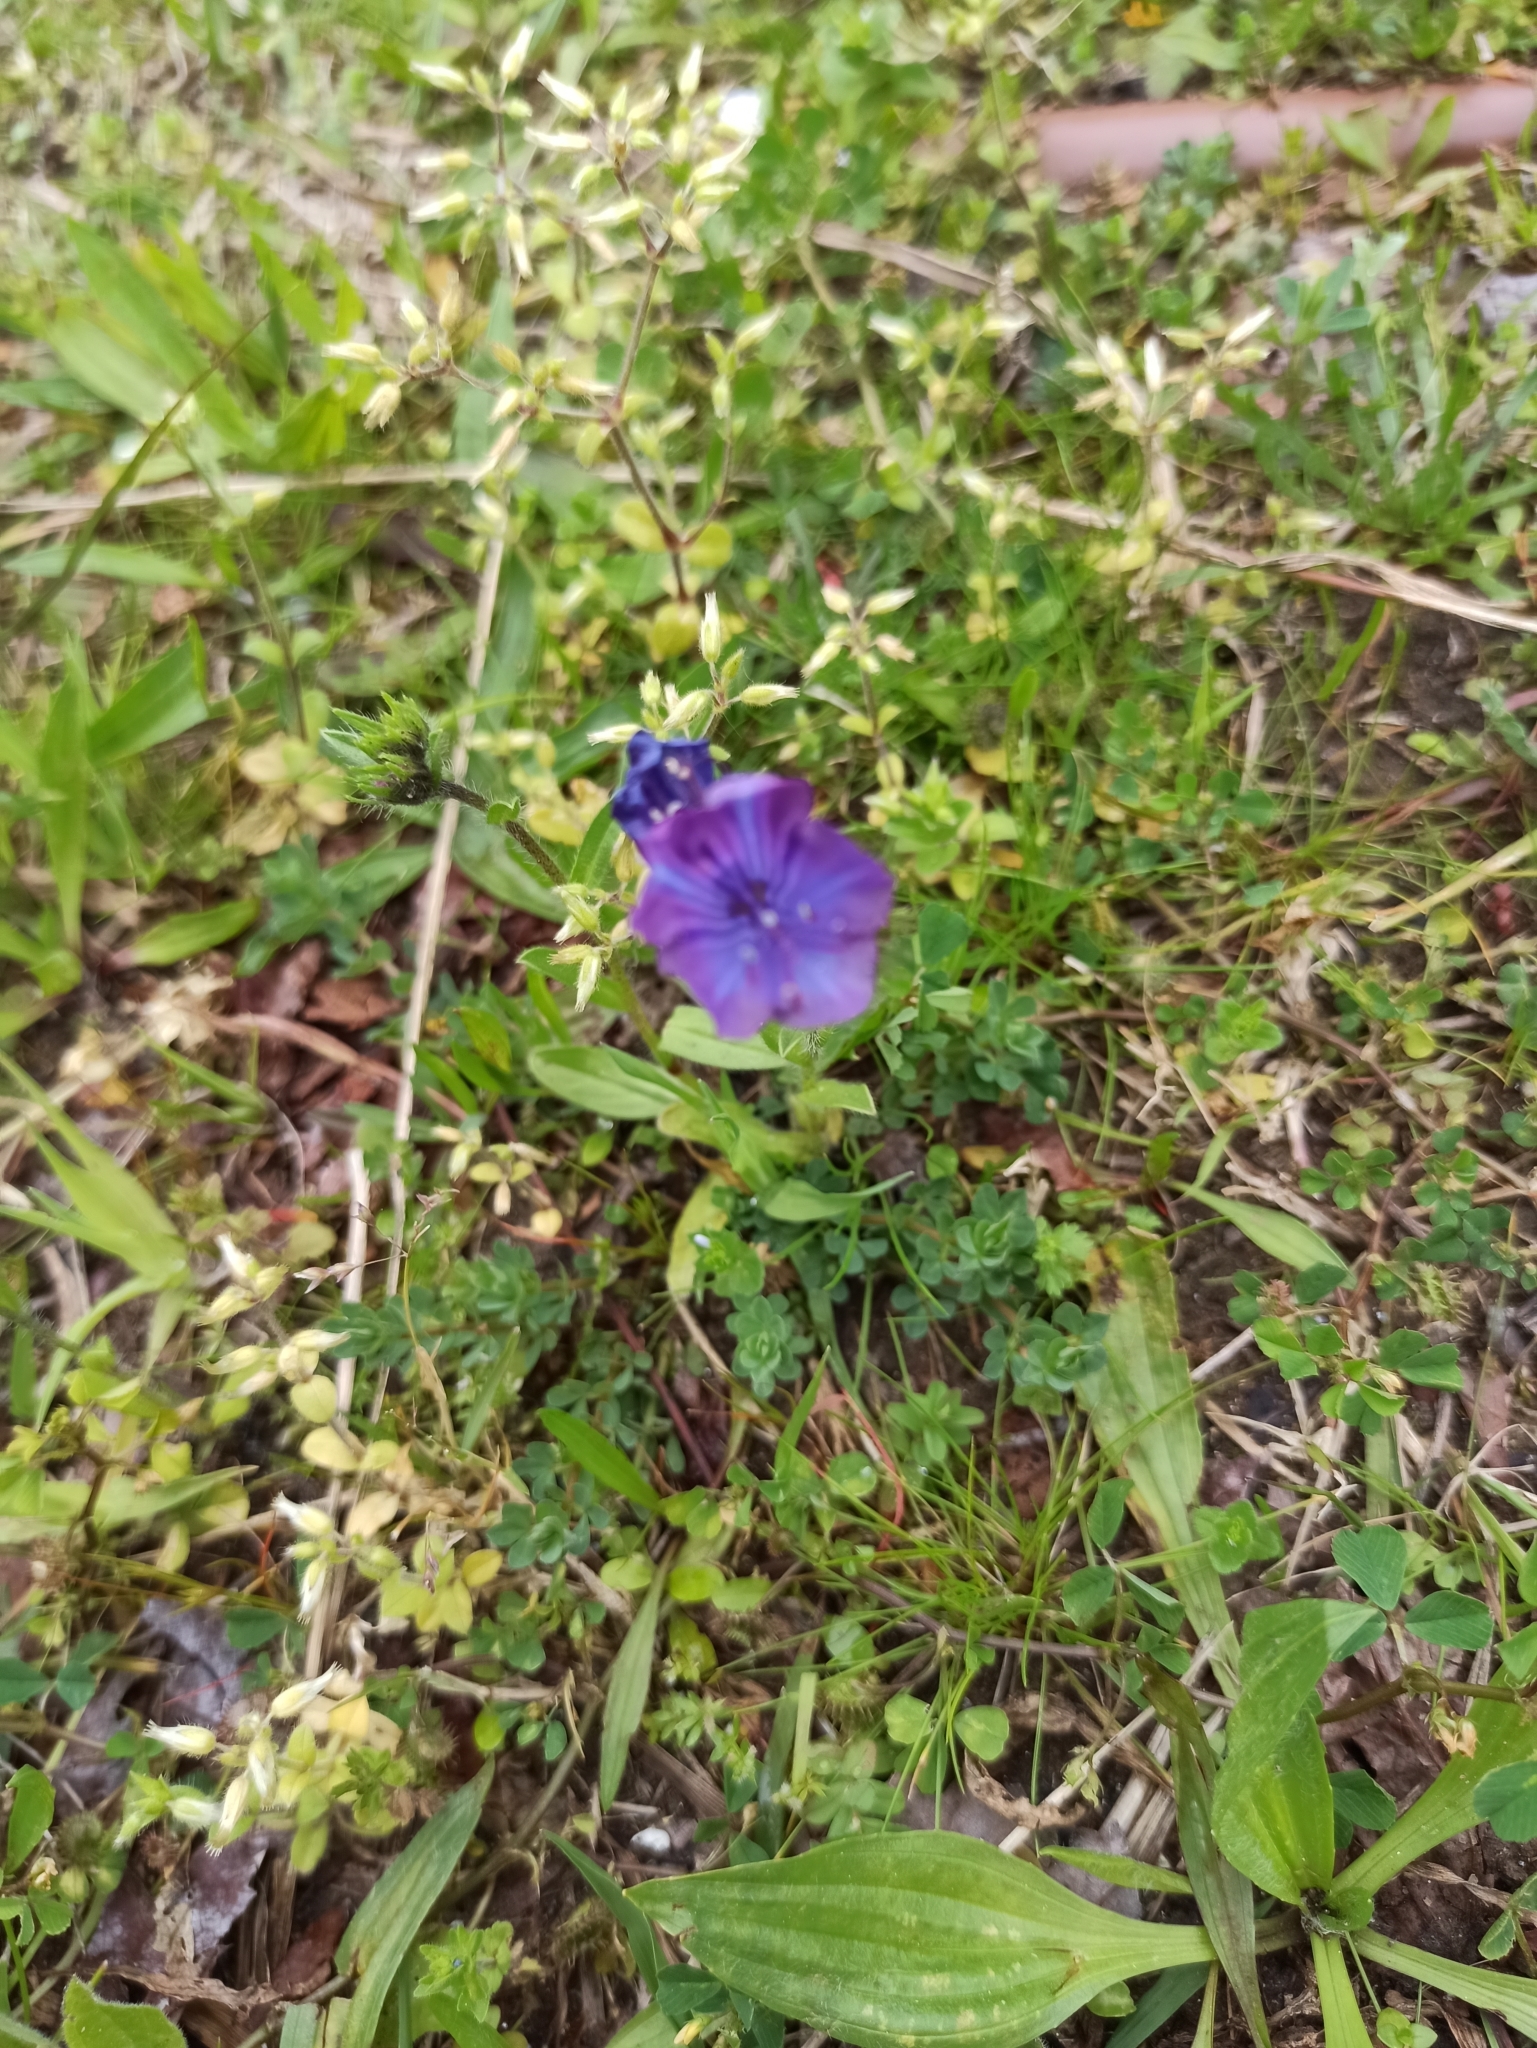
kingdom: Plantae
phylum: Tracheophyta
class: Magnoliopsida
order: Boraginales
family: Boraginaceae
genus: Echium
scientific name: Echium plantagineum
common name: Purple viper's-bugloss
